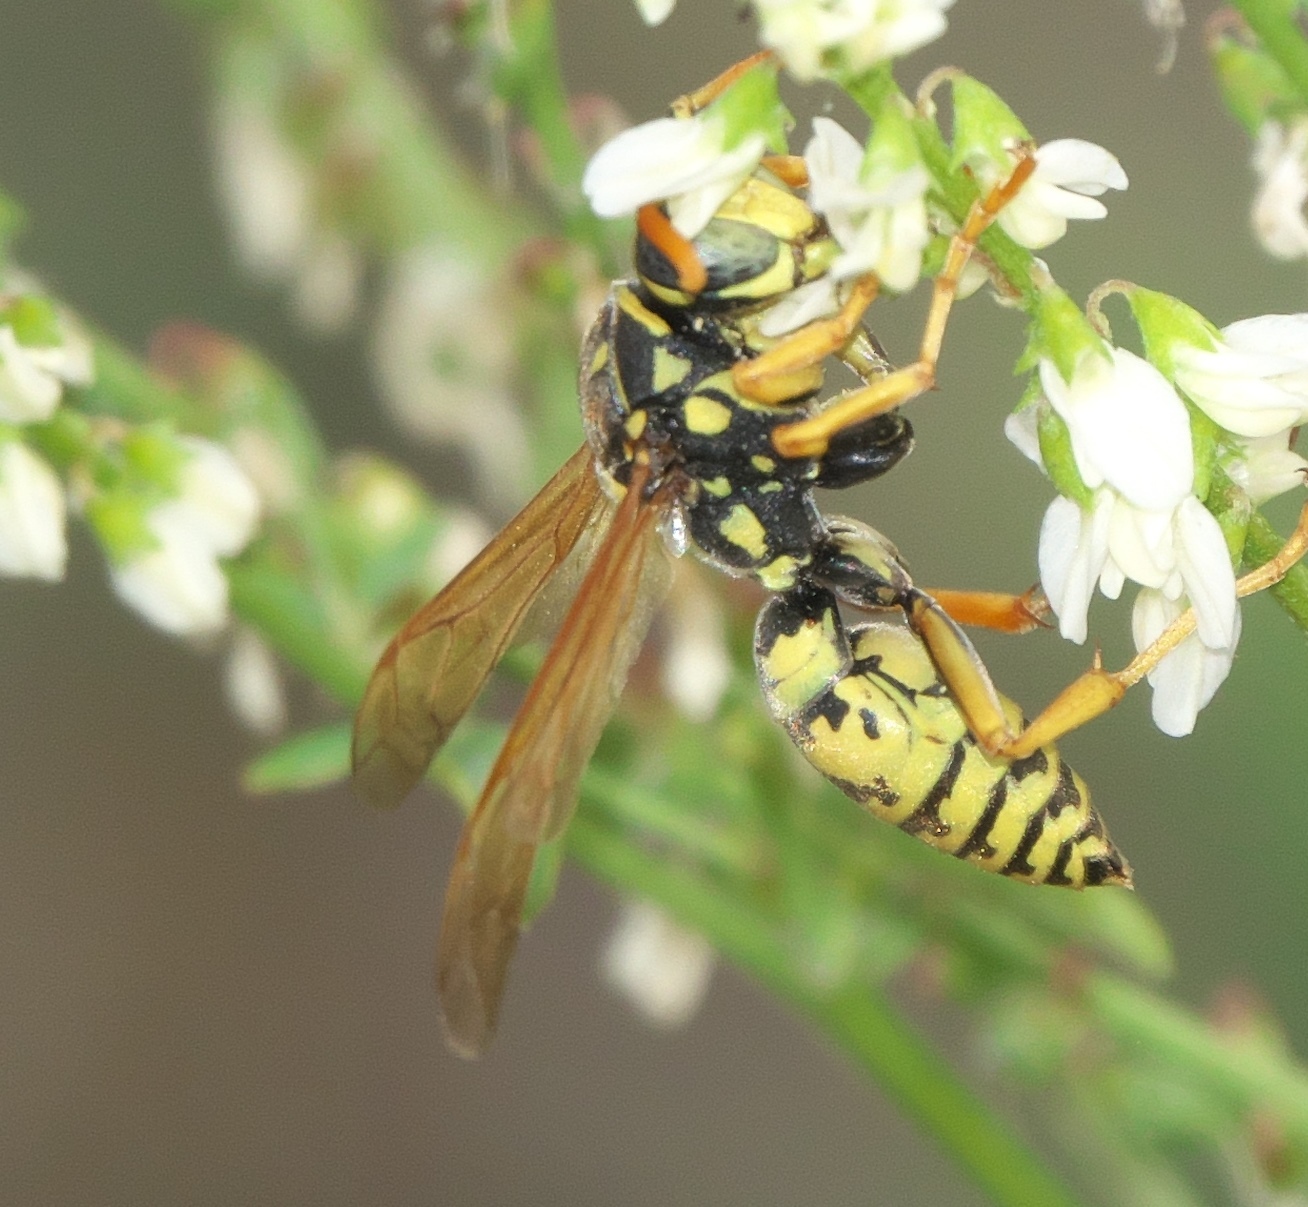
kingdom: Animalia
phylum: Arthropoda
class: Insecta
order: Hymenoptera
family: Eumenidae
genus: Polistes
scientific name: Polistes dominula
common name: Paper wasp
